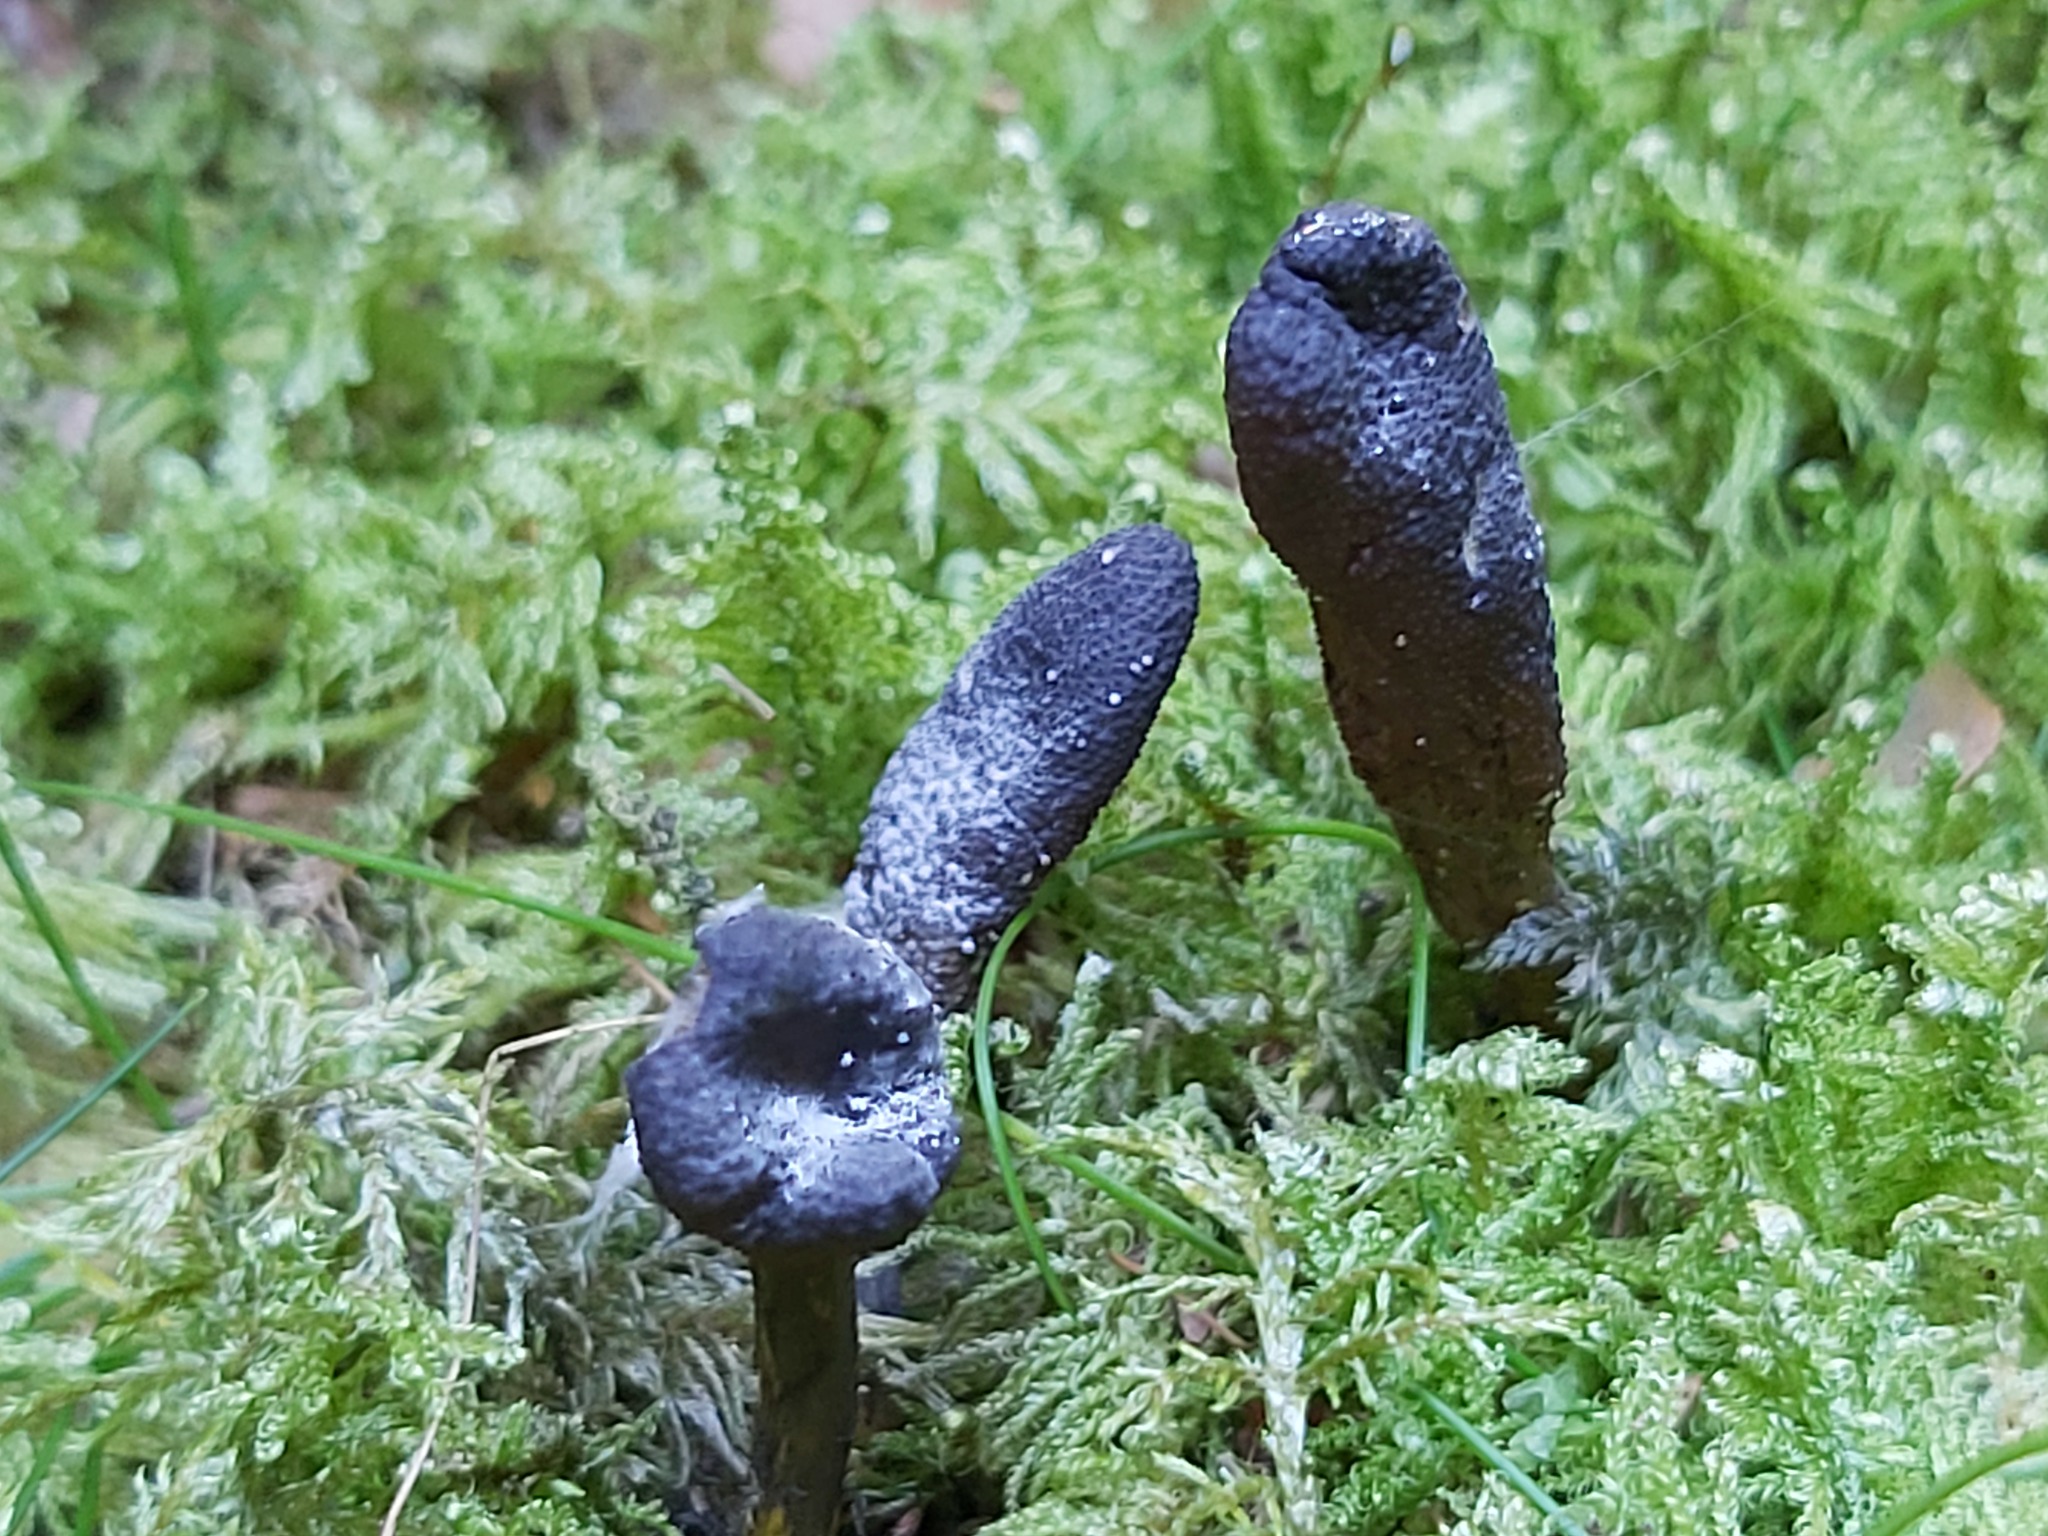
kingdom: Fungi
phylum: Ascomycota
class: Sordariomycetes
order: Hypocreales
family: Ophiocordycipitaceae
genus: Tolypocladium
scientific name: Tolypocladium ophioglossoides
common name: Snaketongue truffleclub
